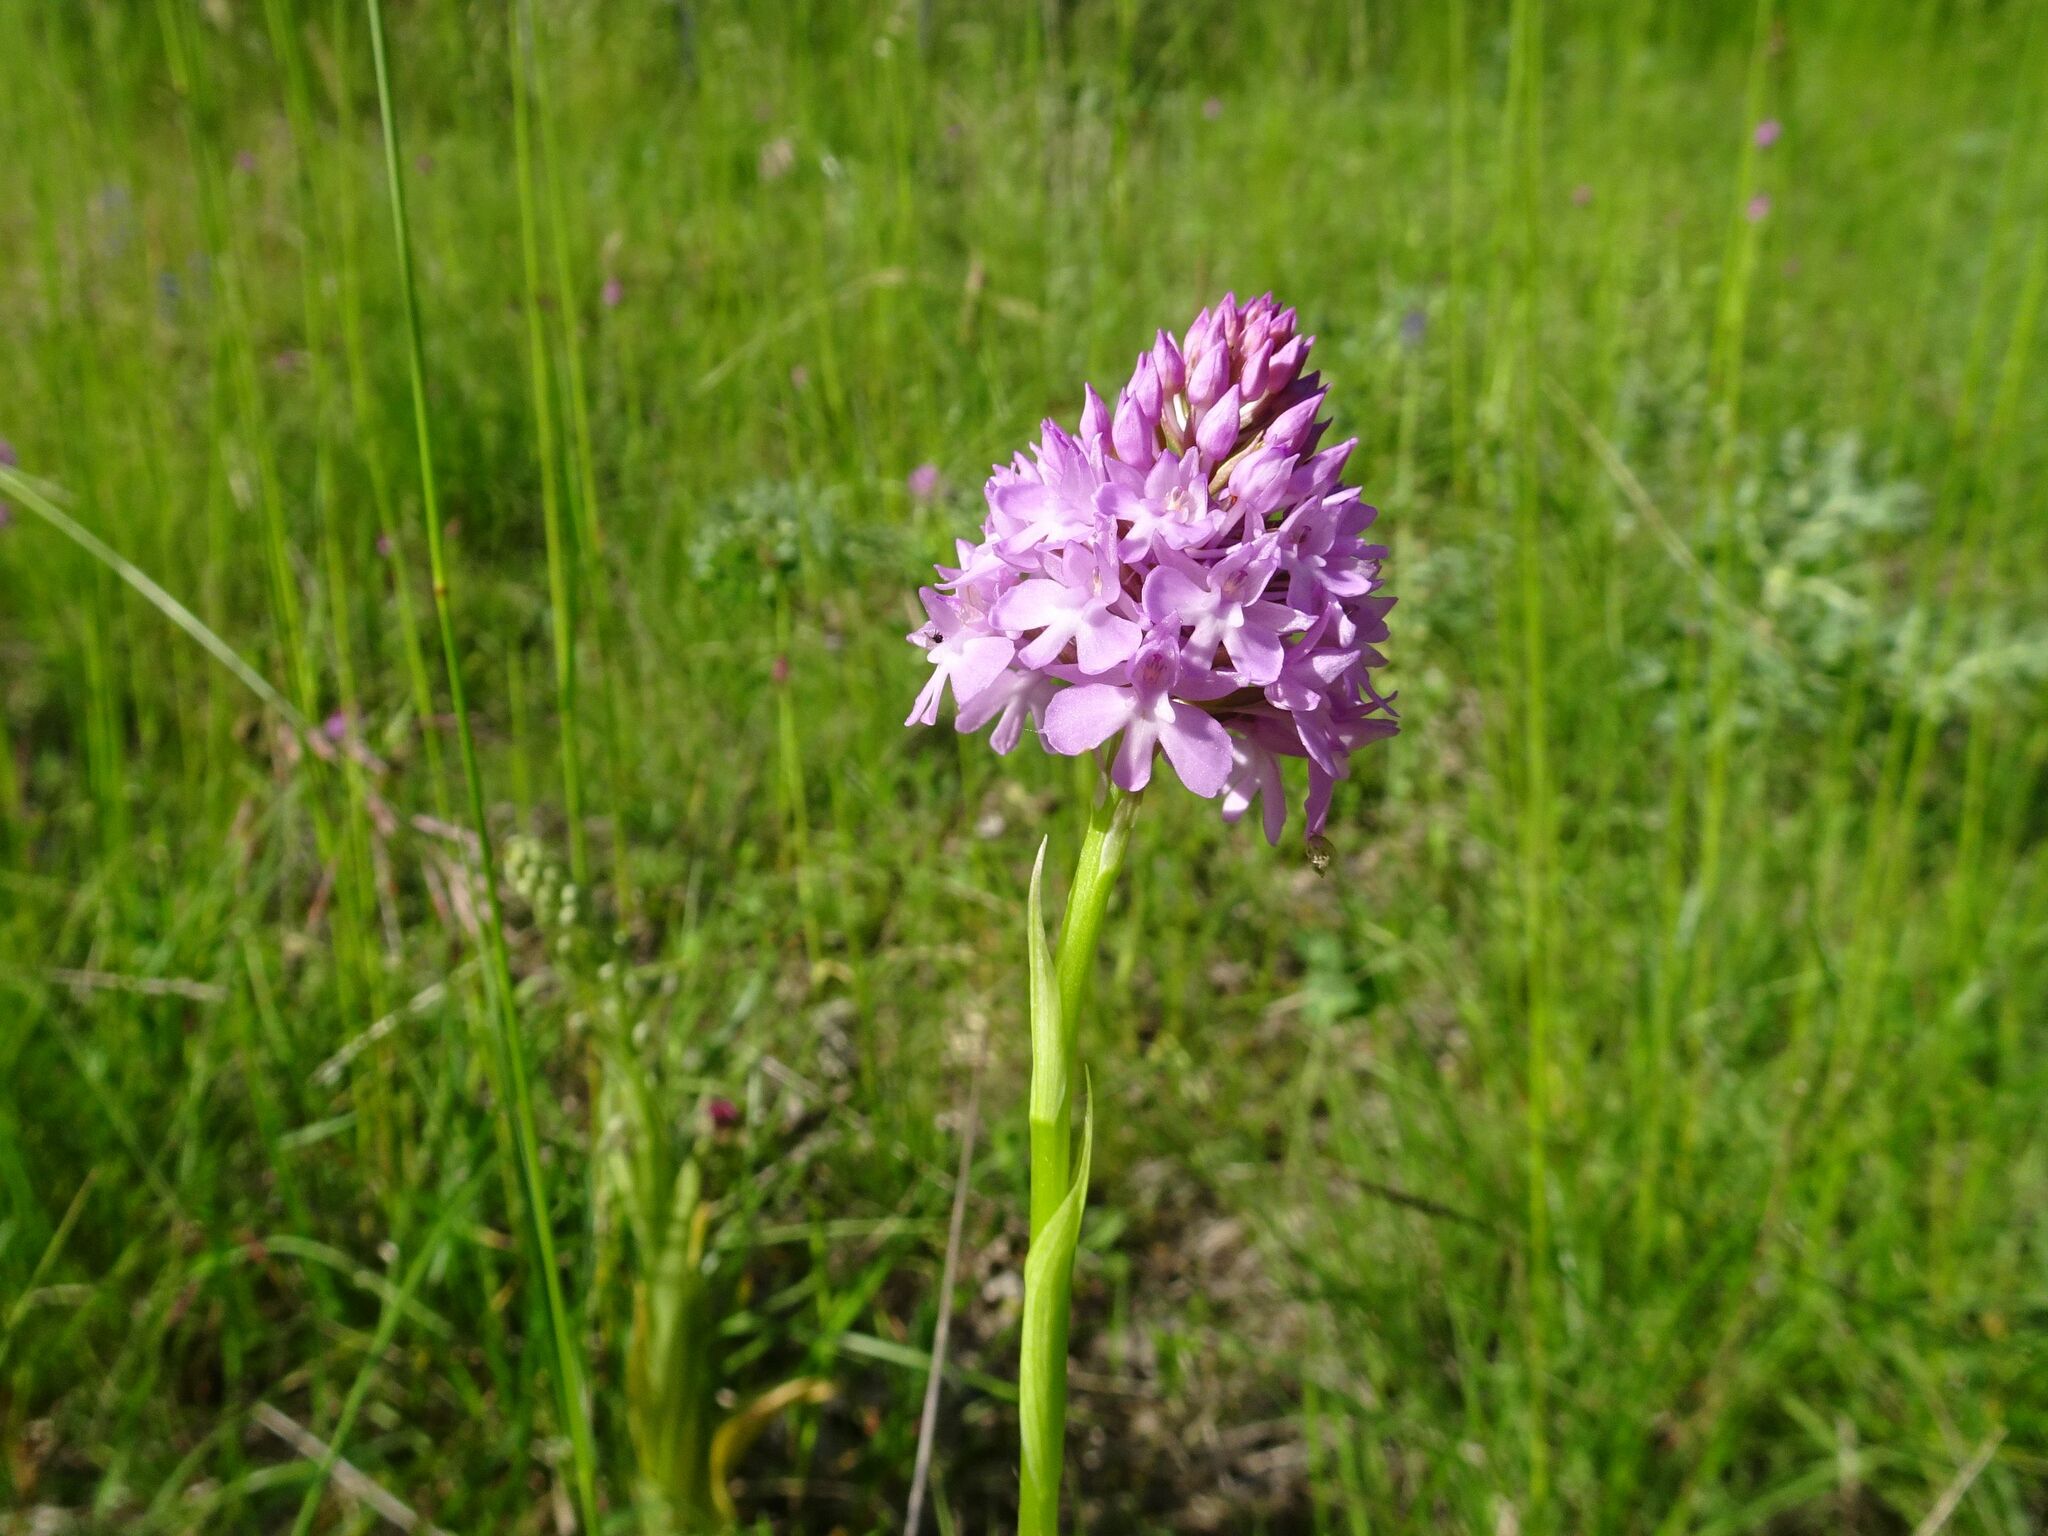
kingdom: Plantae
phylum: Tracheophyta
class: Liliopsida
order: Asparagales
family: Orchidaceae
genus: Anacamptis
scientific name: Anacamptis pyramidalis
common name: Pyramidal orchid
